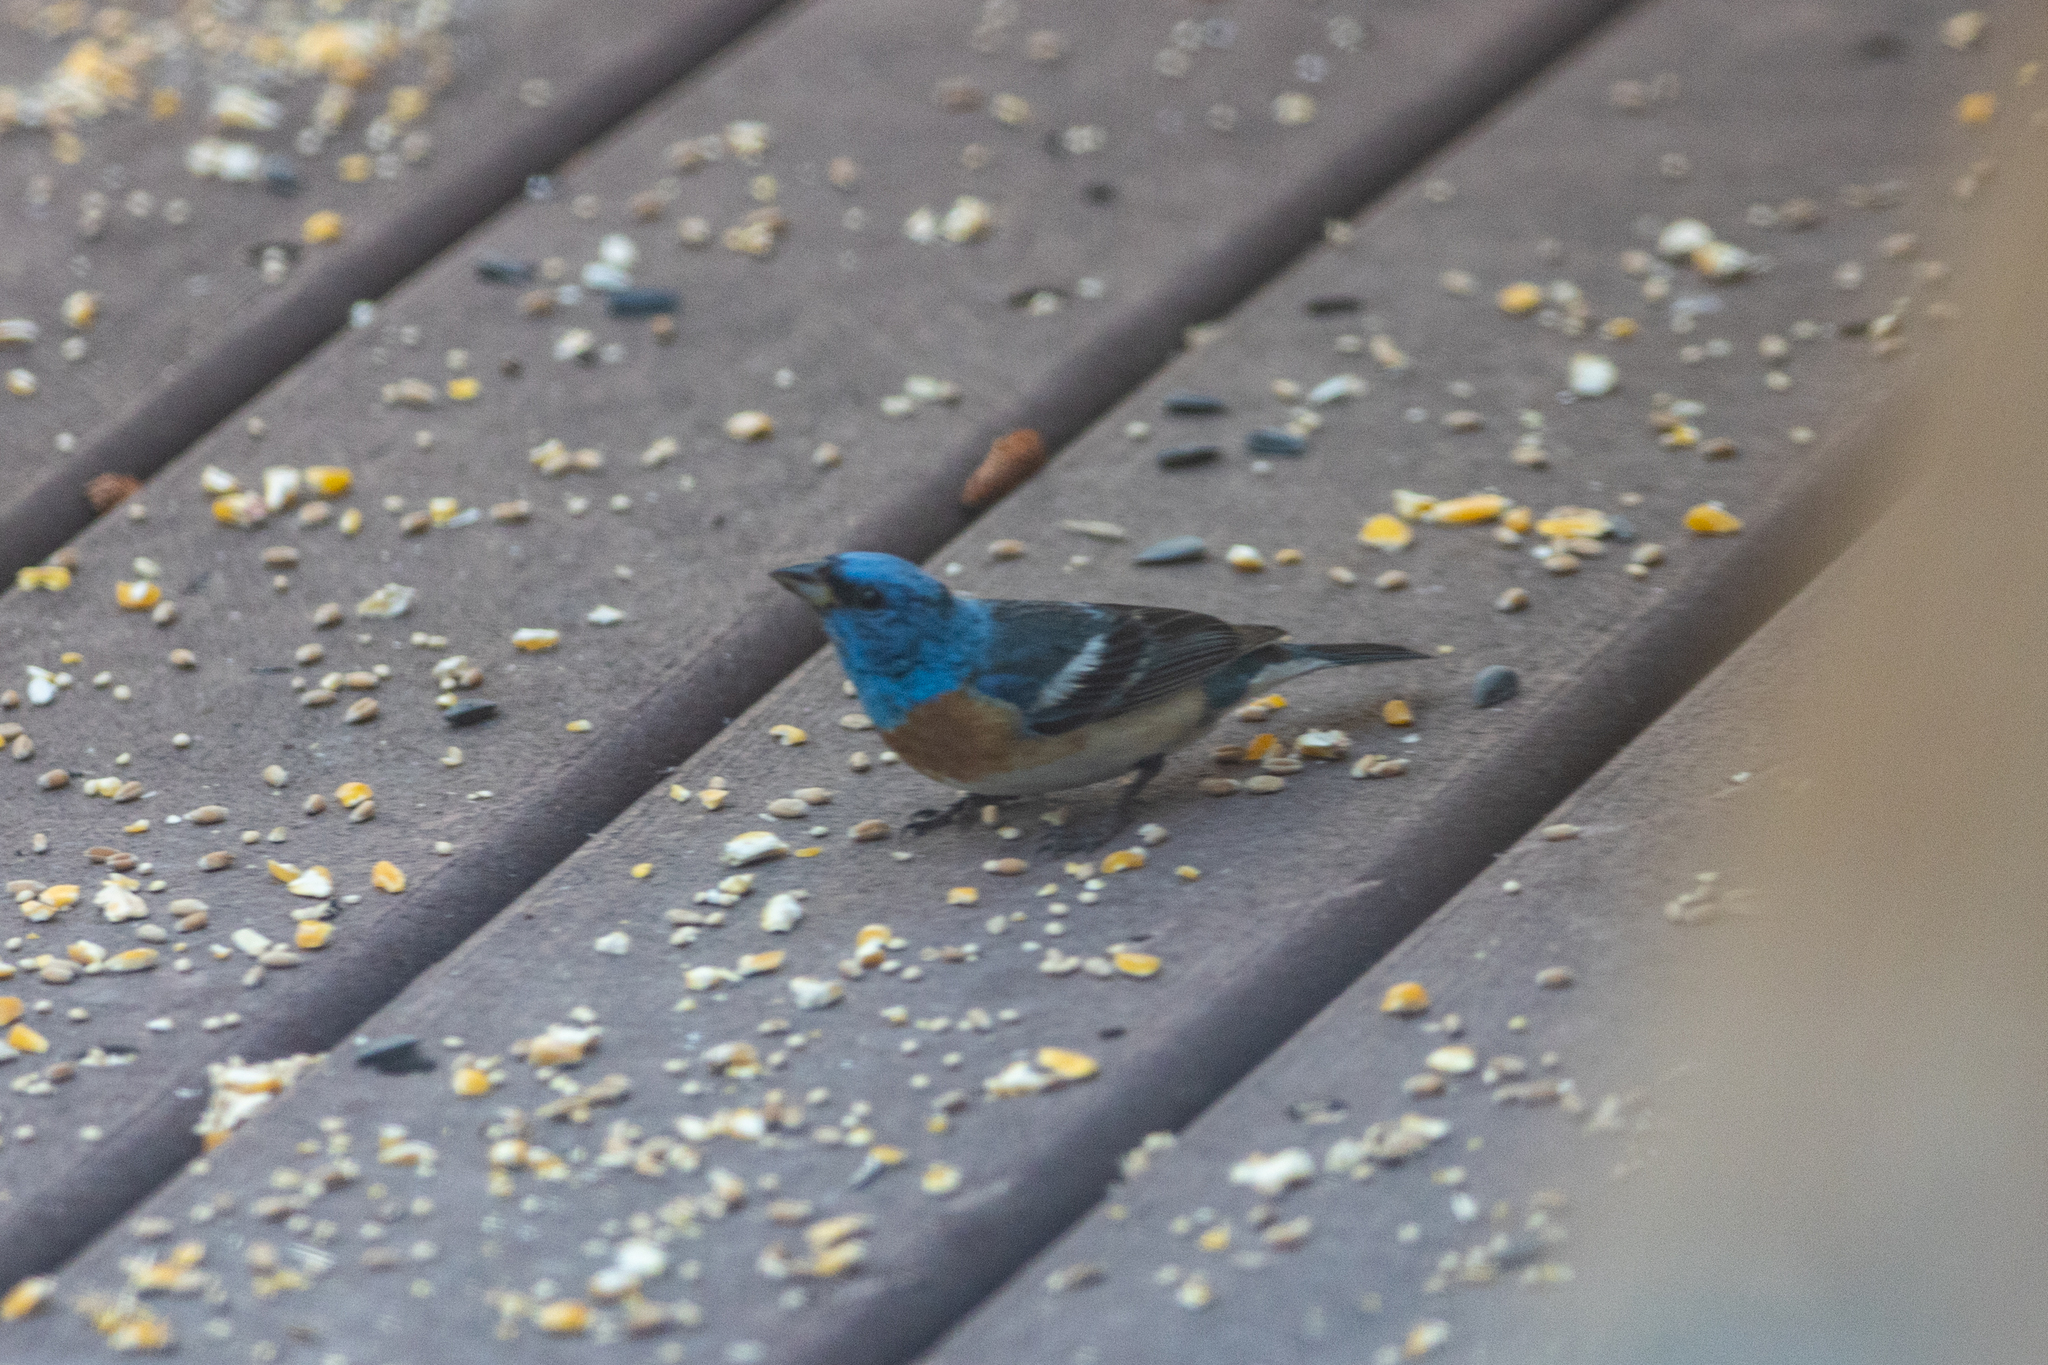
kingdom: Animalia
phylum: Chordata
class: Aves
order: Passeriformes
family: Cardinalidae
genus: Passerina
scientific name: Passerina amoena
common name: Lazuli bunting
